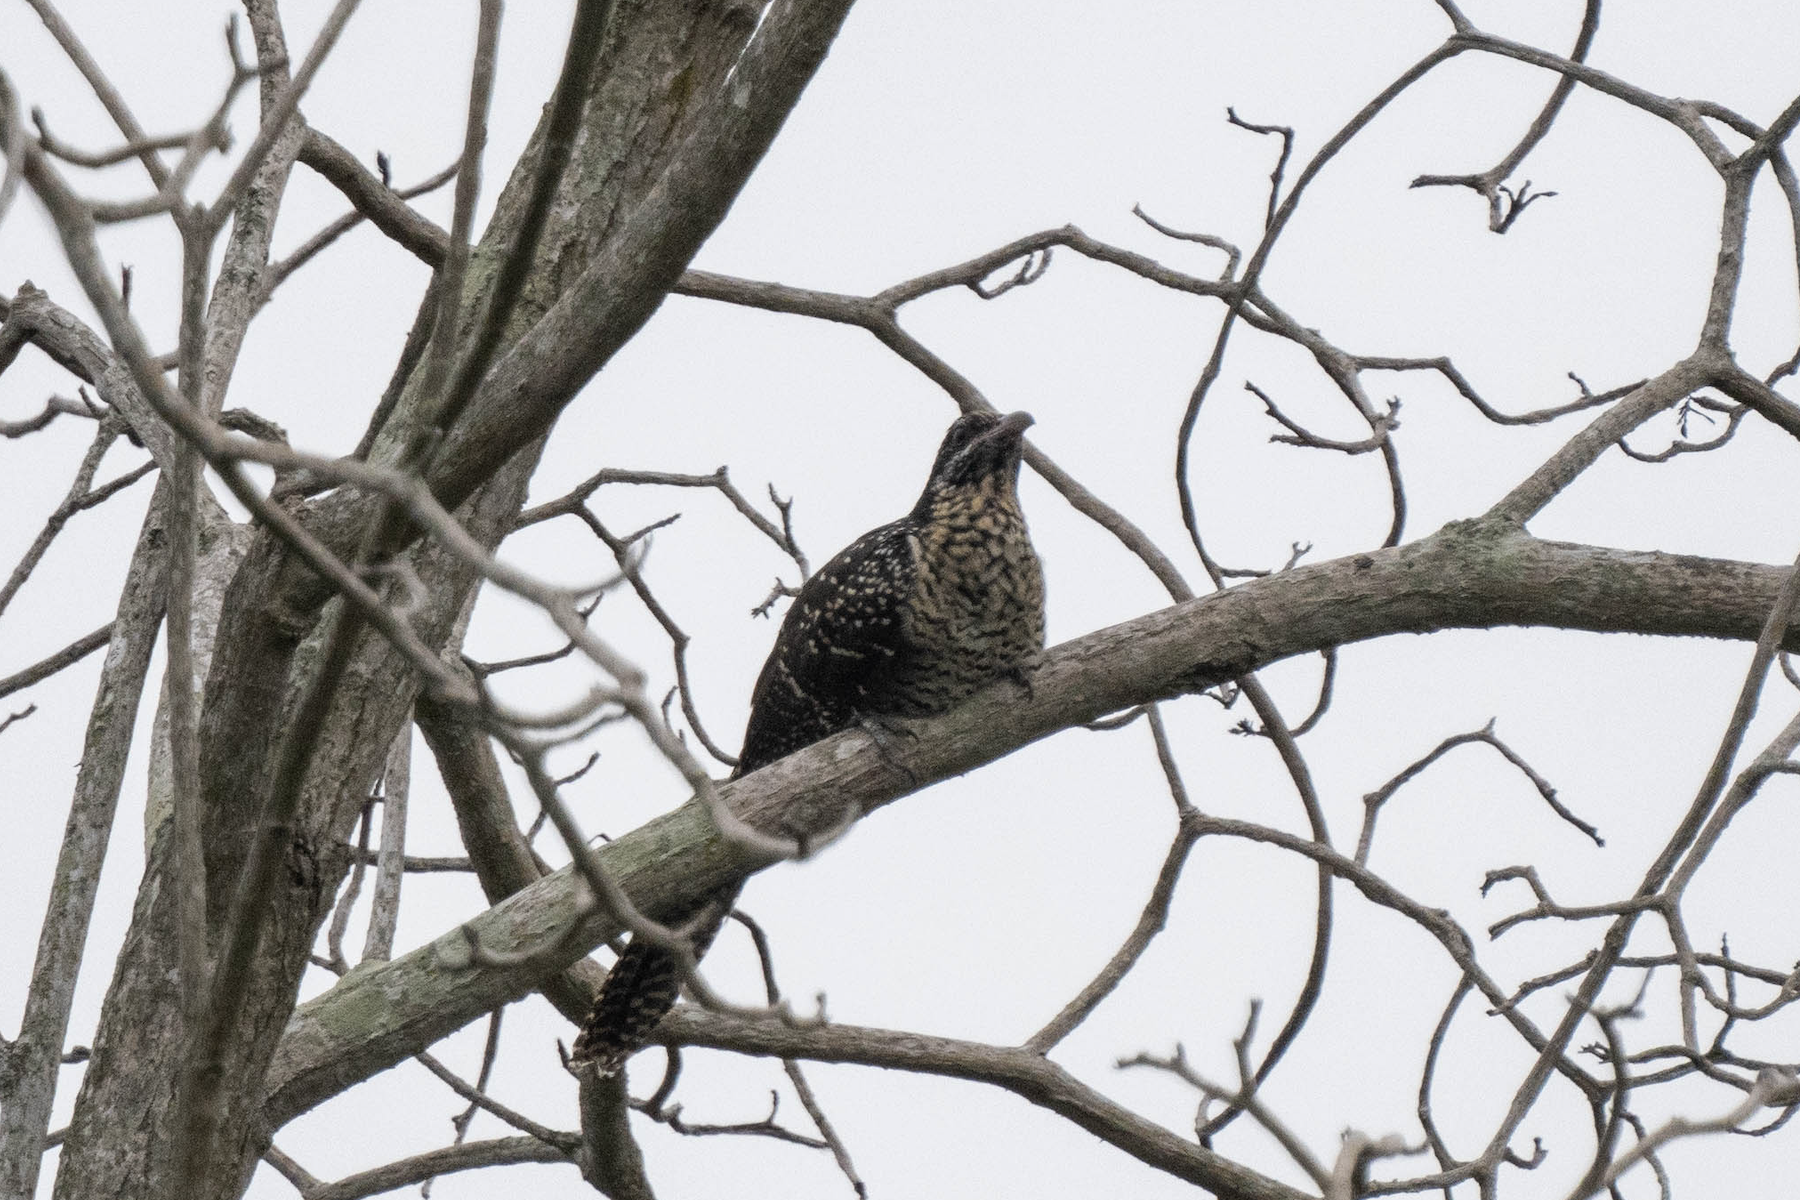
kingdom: Animalia
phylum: Chordata
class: Aves
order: Cuculiformes
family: Cuculidae
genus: Eudynamys
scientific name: Eudynamys scolopaceus
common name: Asian koel
